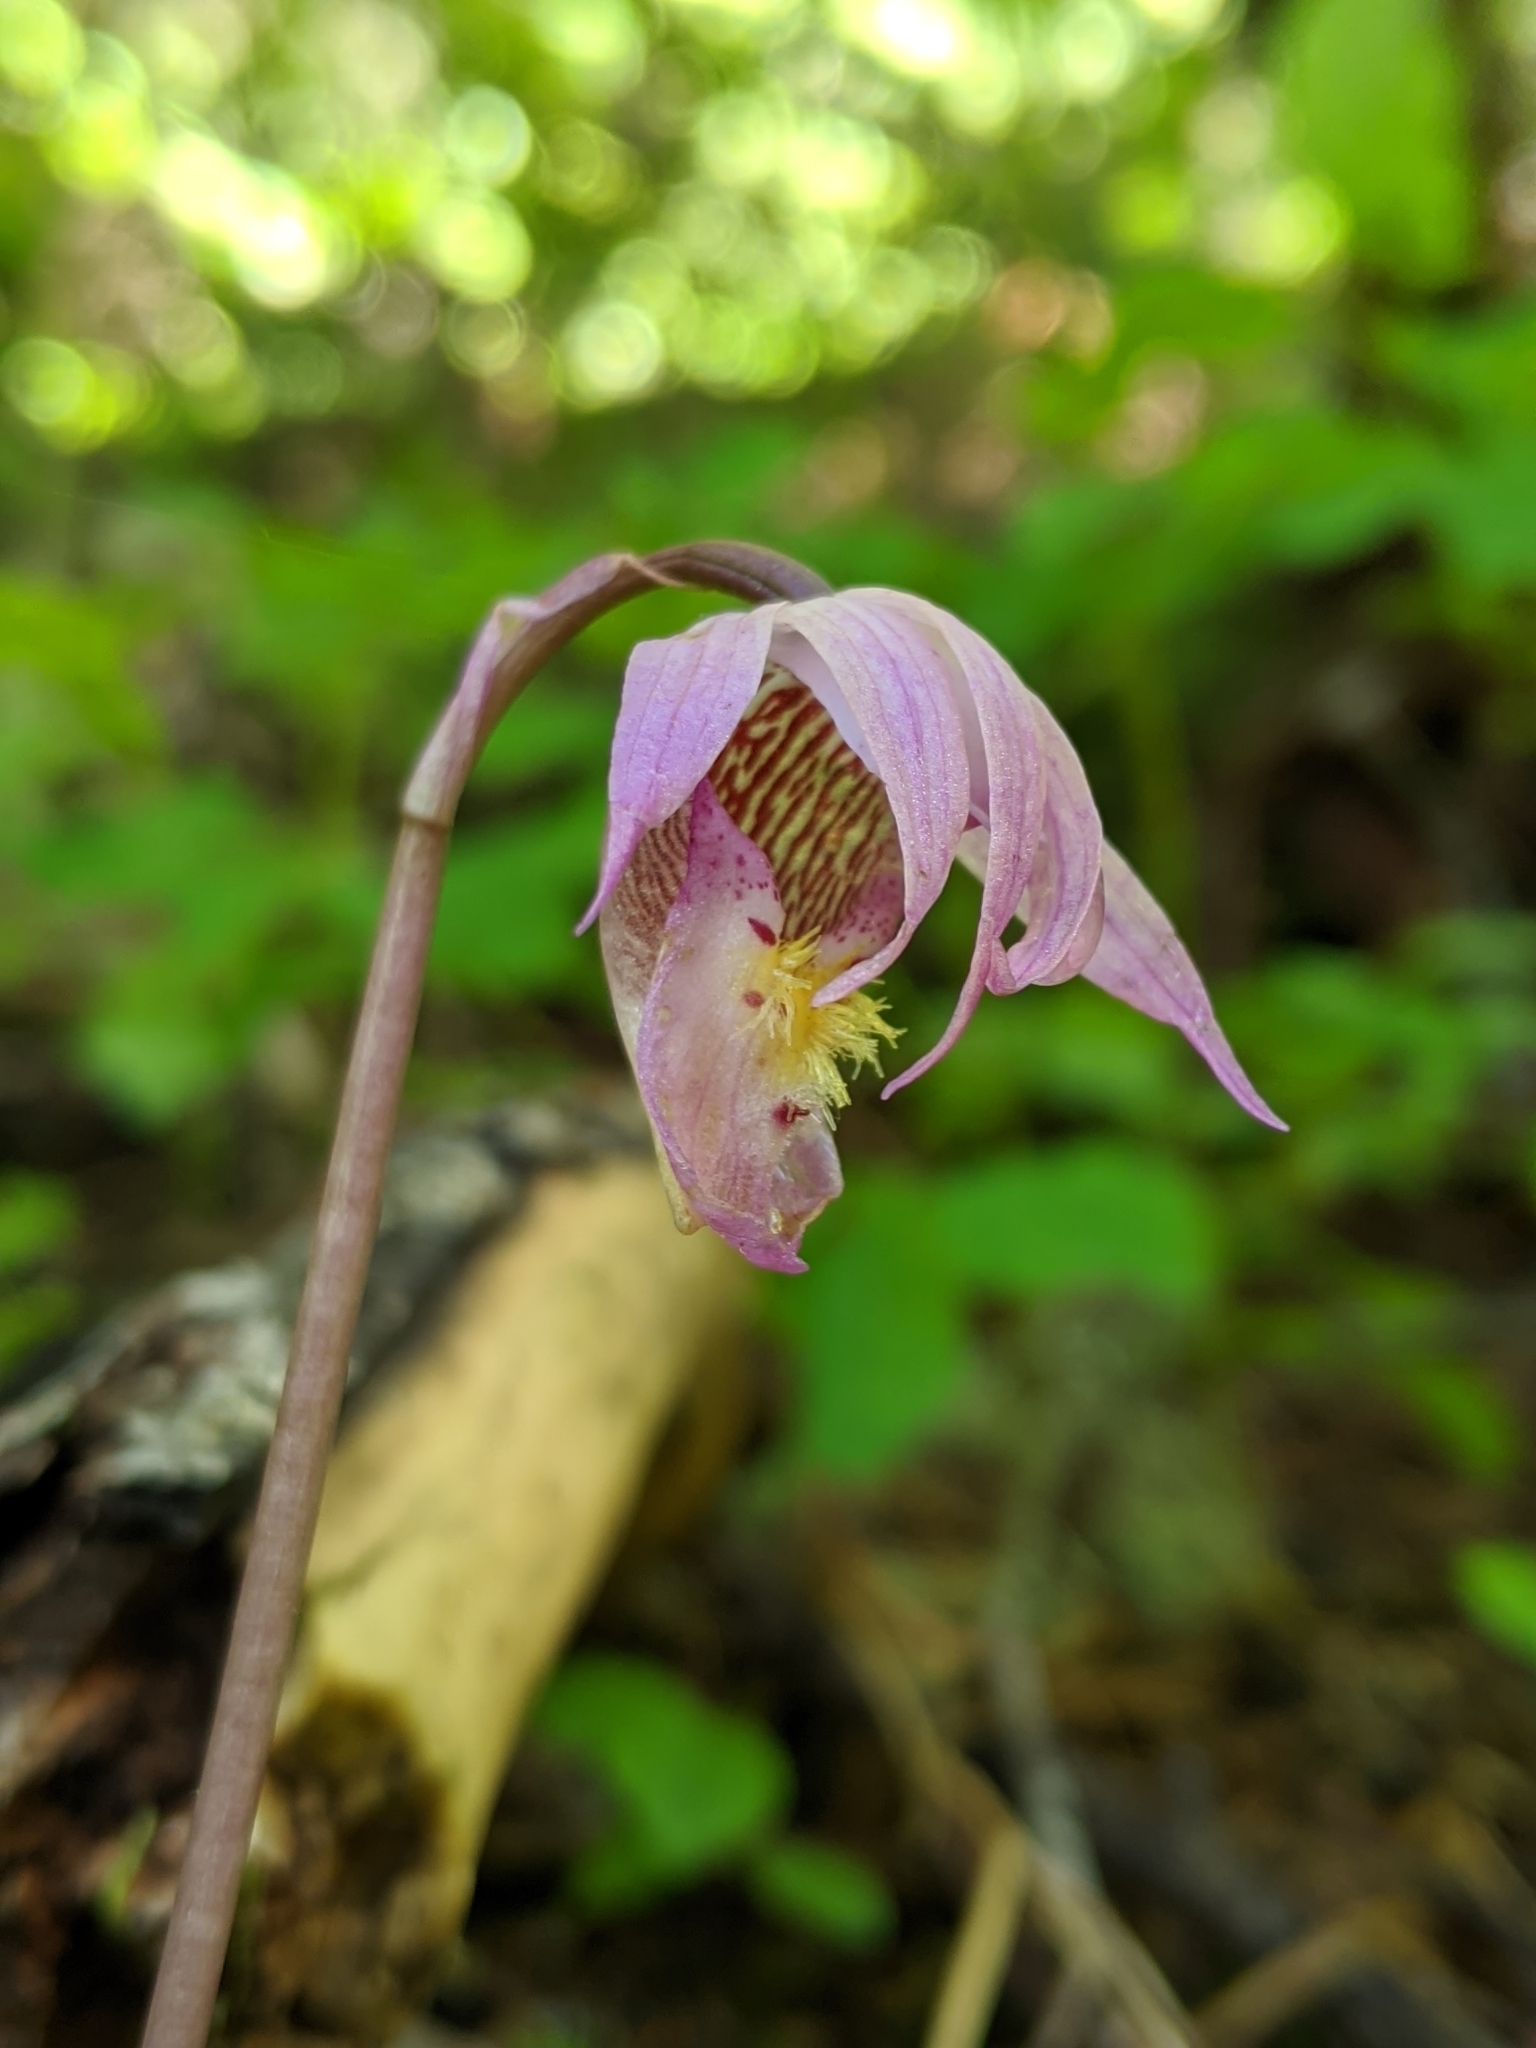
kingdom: Plantae
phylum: Tracheophyta
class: Liliopsida
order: Asparagales
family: Orchidaceae
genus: Calypso
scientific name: Calypso bulbosa
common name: Calypso
